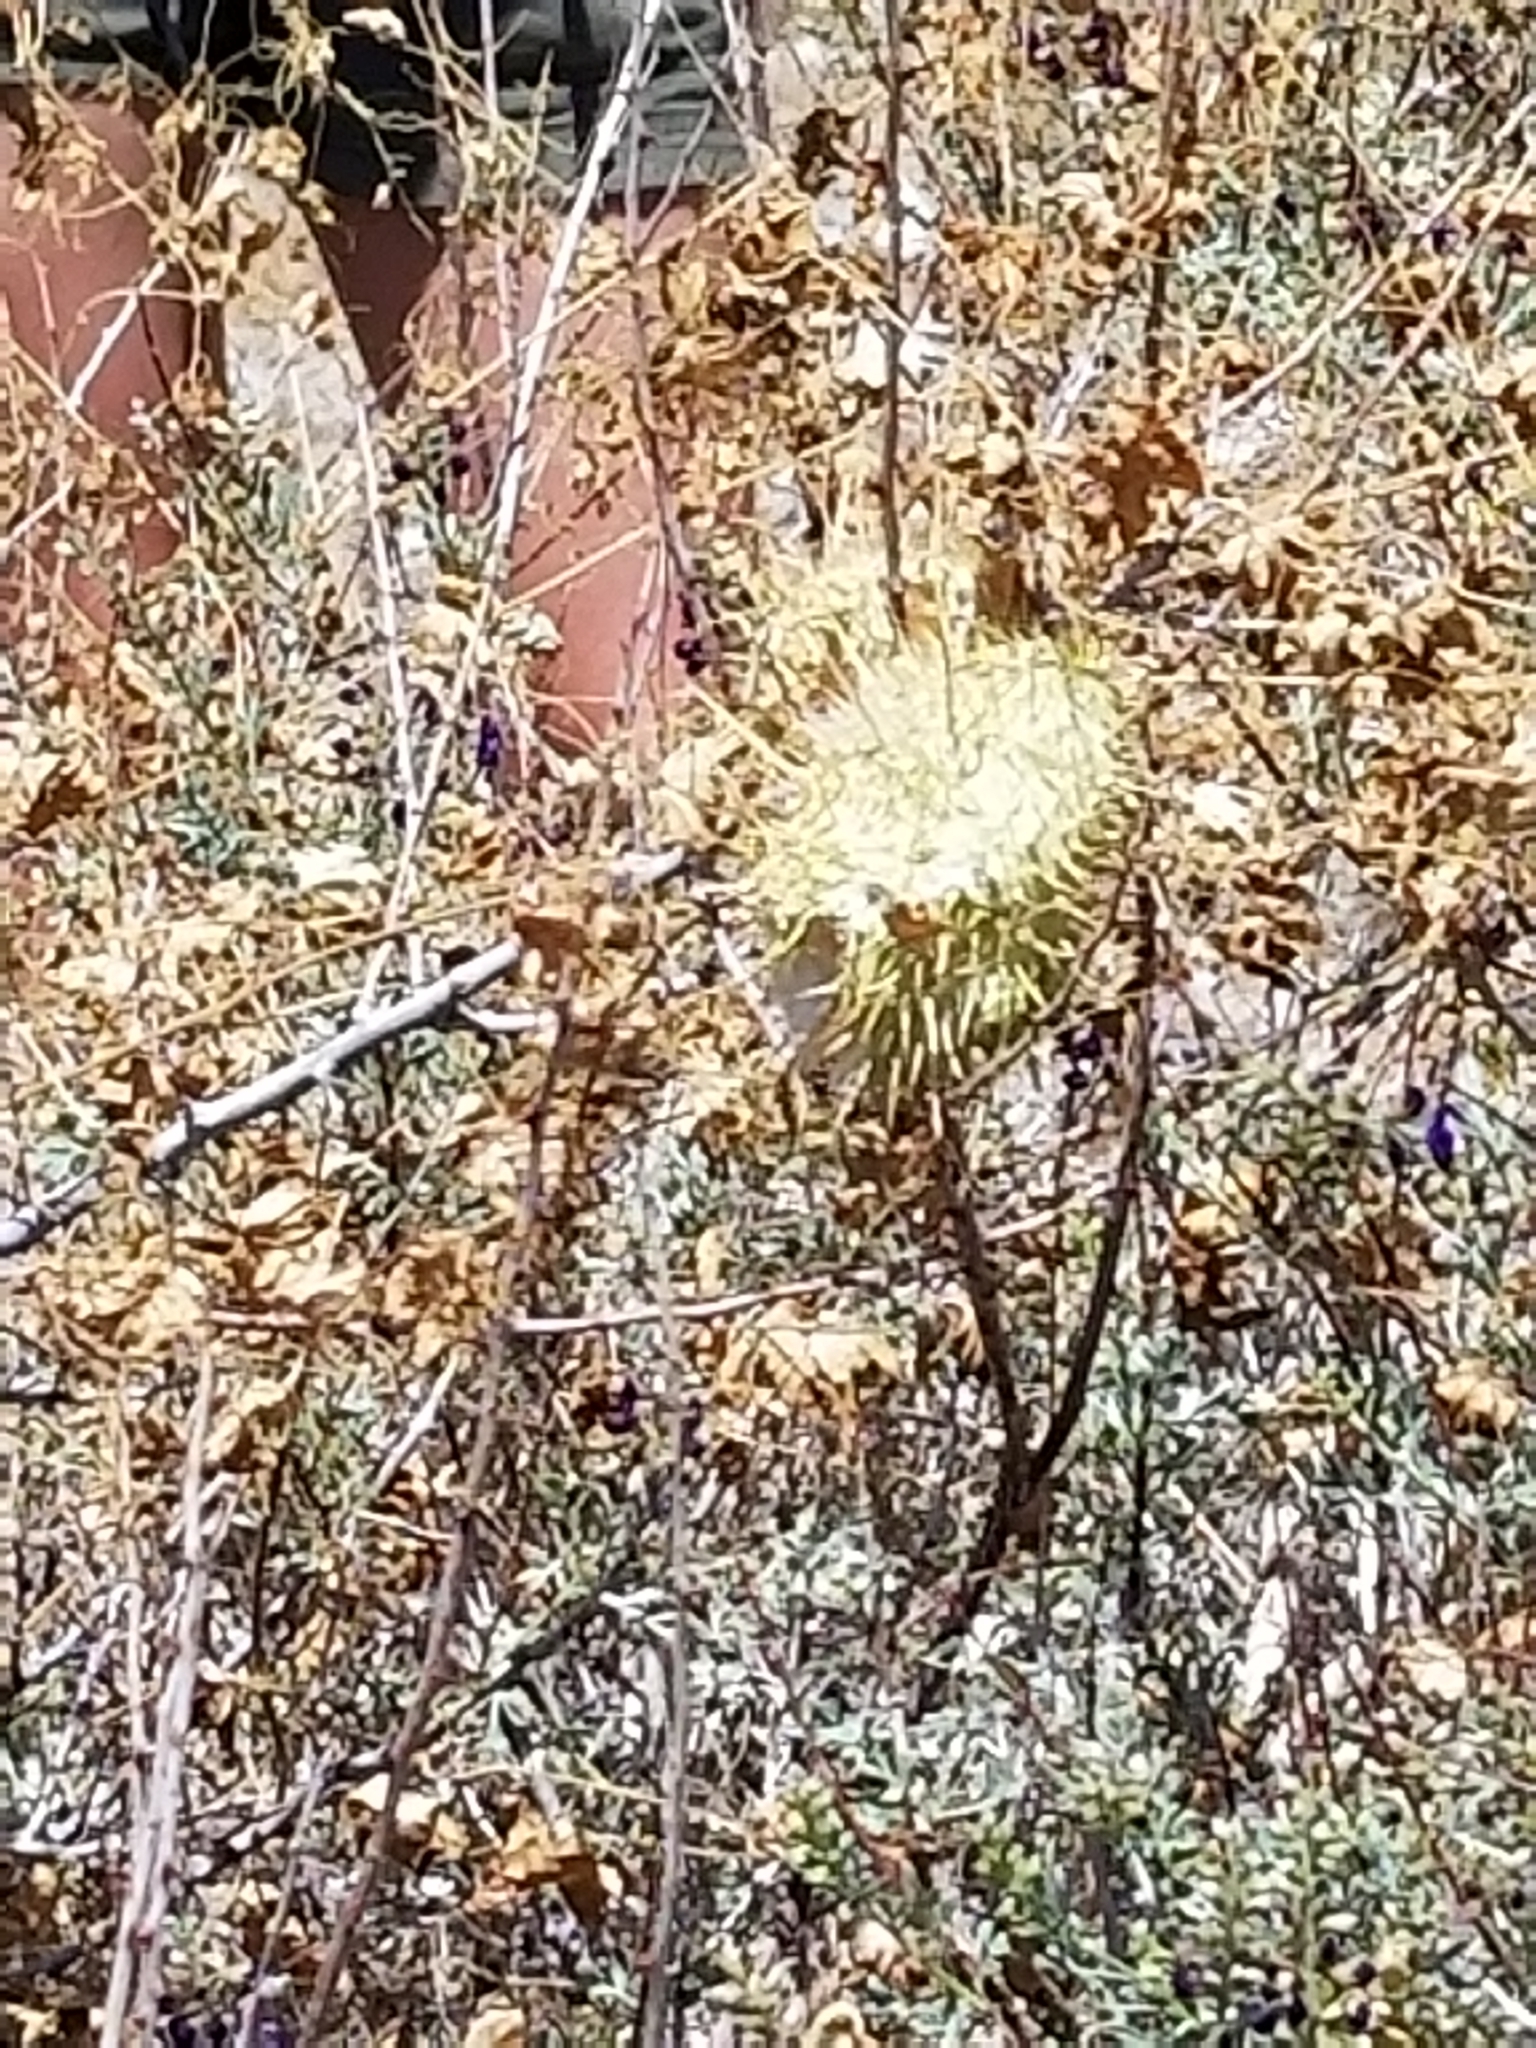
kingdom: Plantae
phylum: Tracheophyta
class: Magnoliopsida
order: Cucurbitales
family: Cucurbitaceae
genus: Marah
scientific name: Marah macrocarpa
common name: Cucamonga manroot
